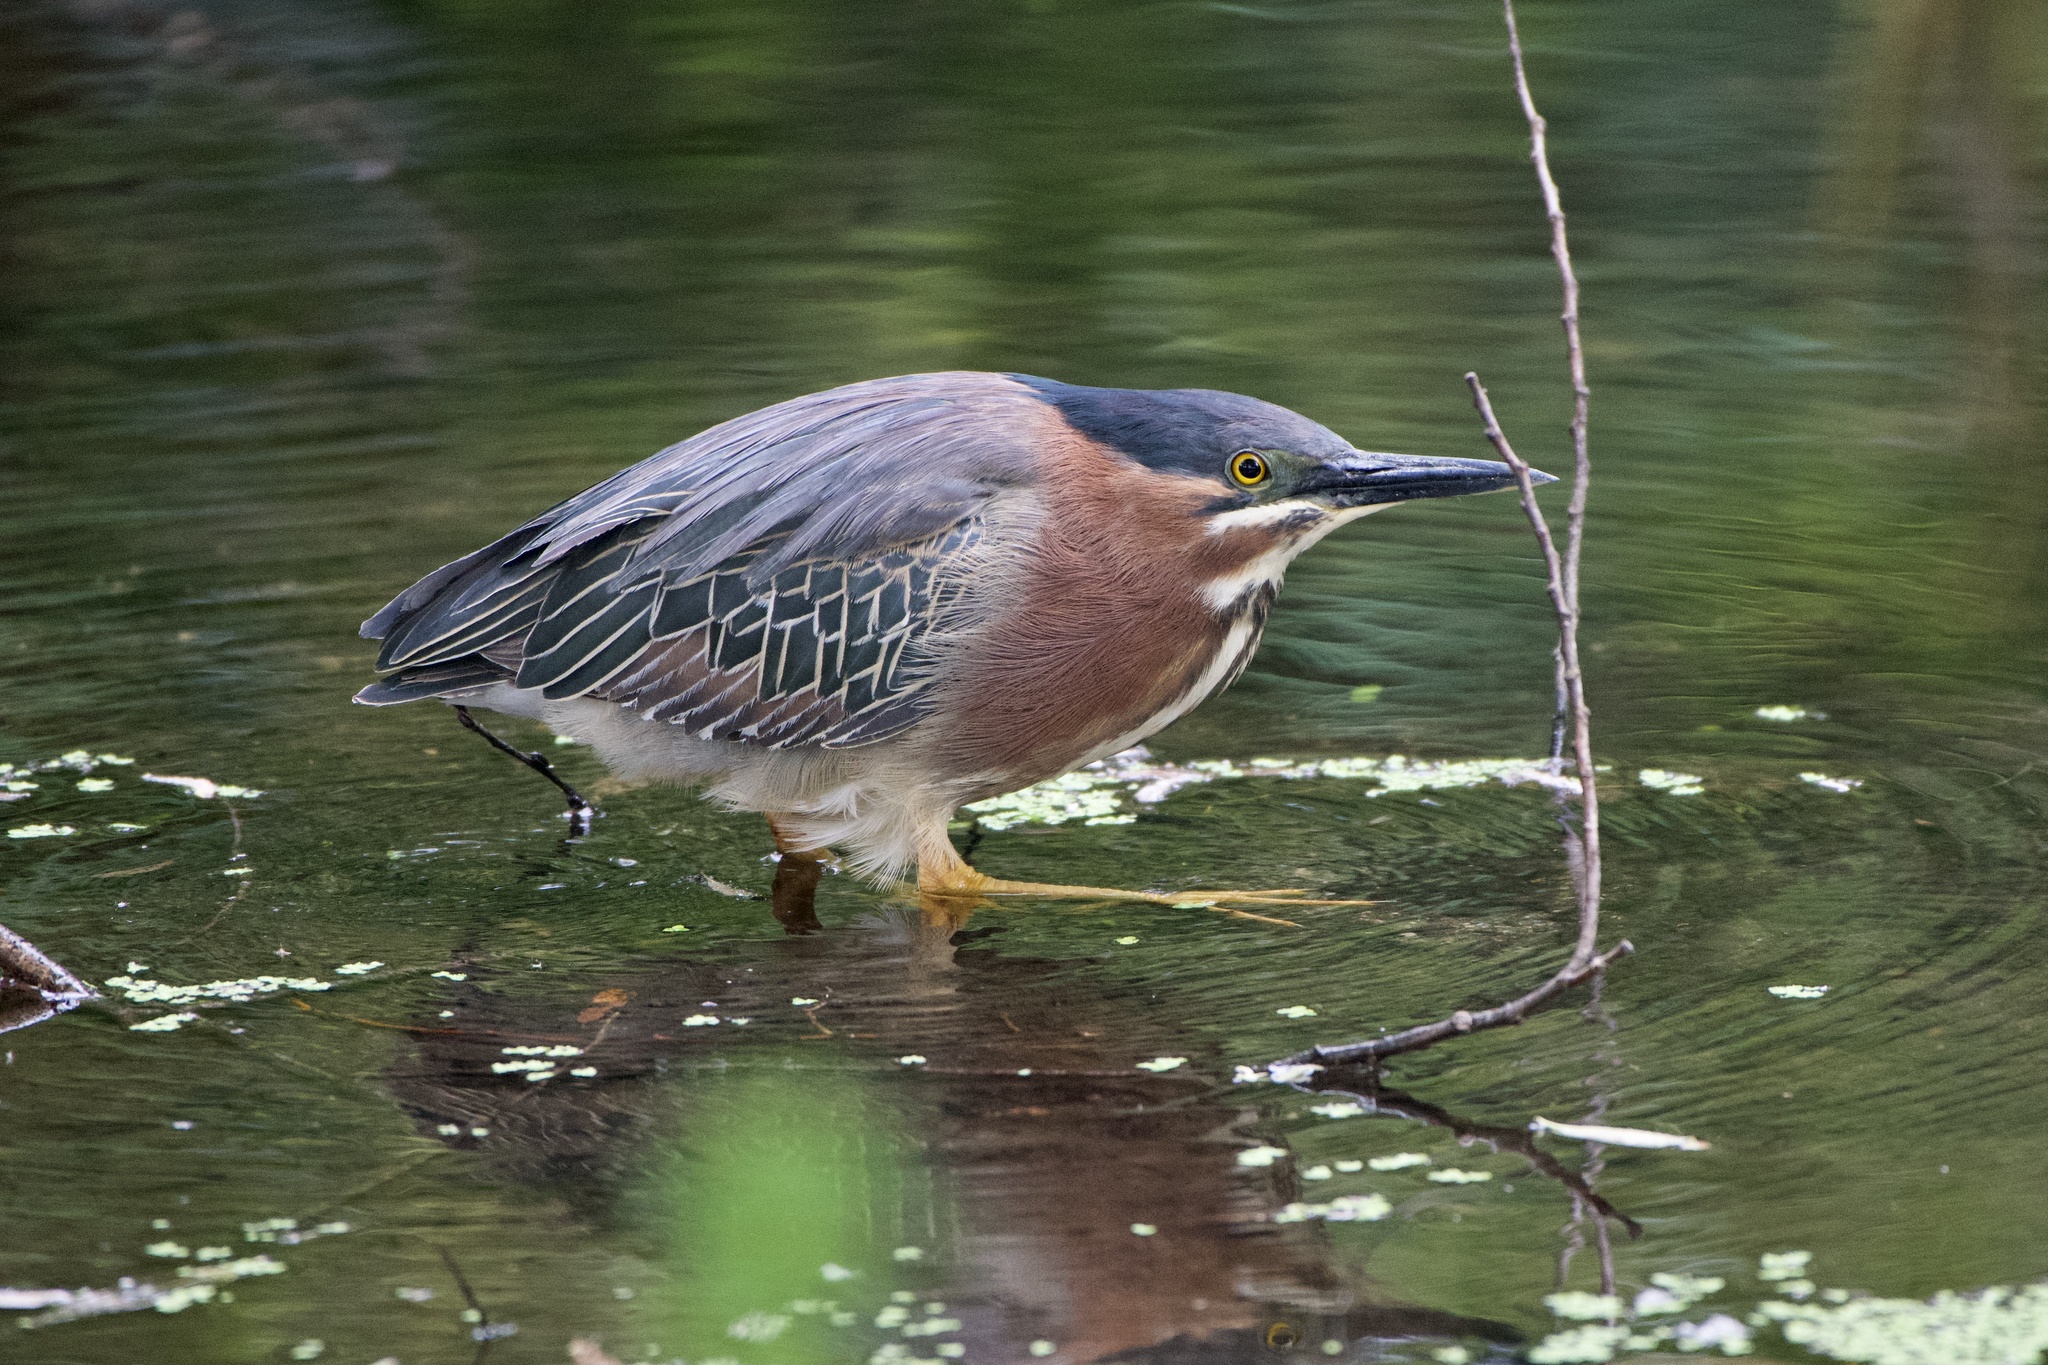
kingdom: Animalia
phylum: Chordata
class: Aves
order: Pelecaniformes
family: Ardeidae
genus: Butorides
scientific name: Butorides virescens
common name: Green heron
